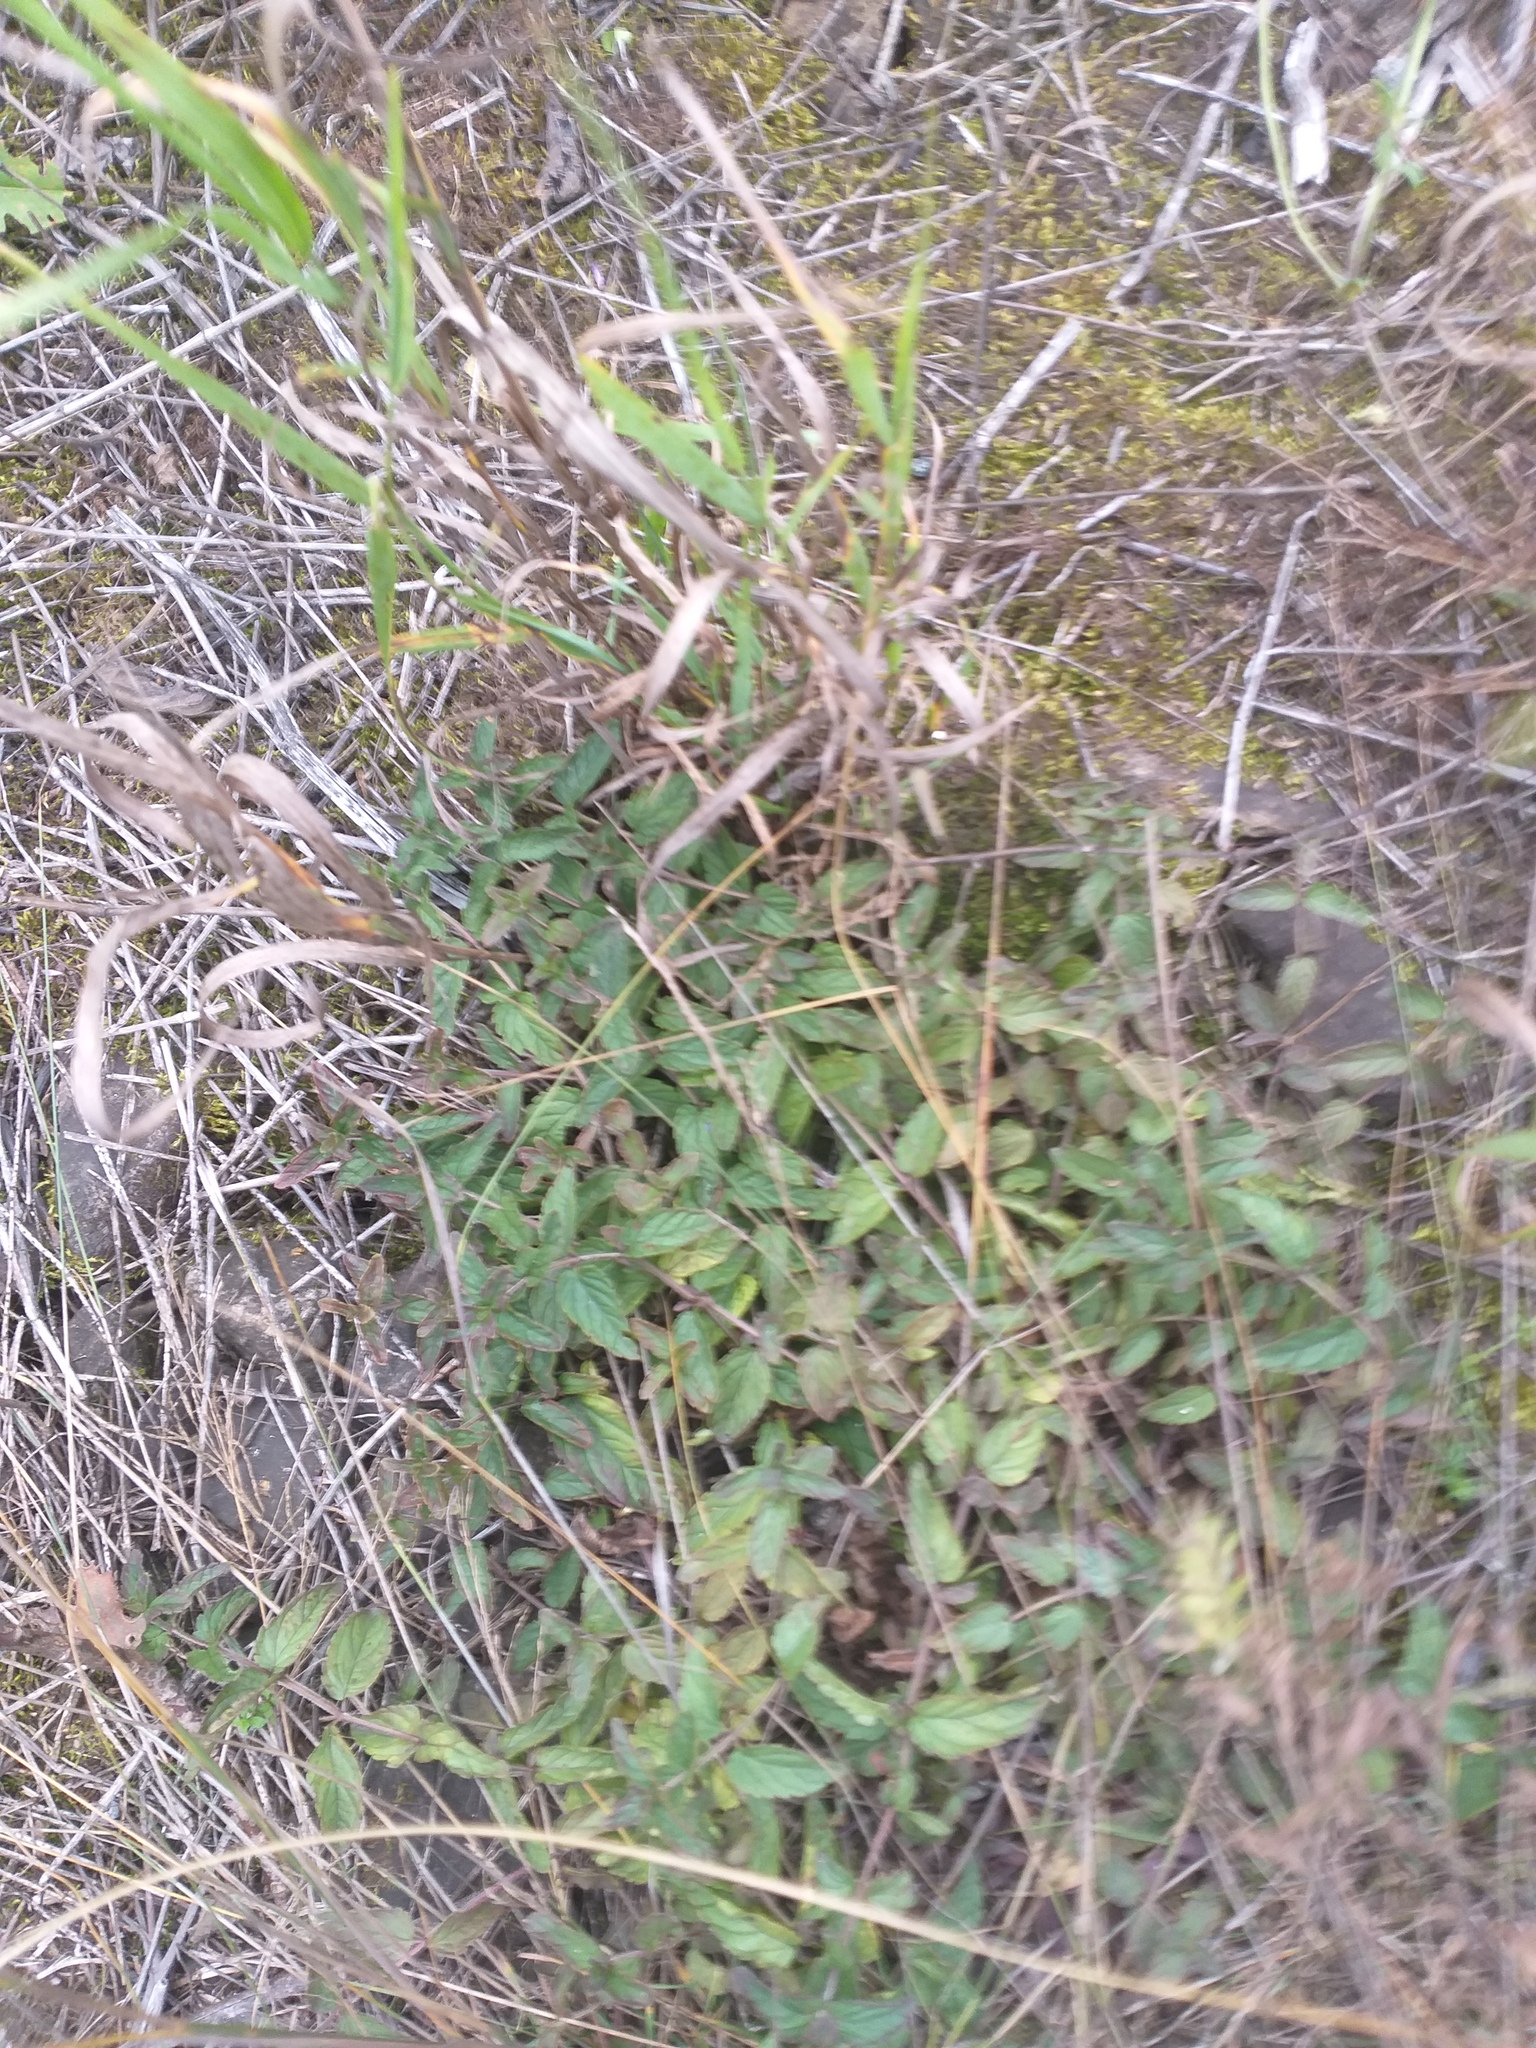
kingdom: Plantae
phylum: Tracheophyta
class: Magnoliopsida
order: Lamiales
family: Plantaginaceae
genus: Veronica
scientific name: Veronica chamaedrys
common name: Germander speedwell
